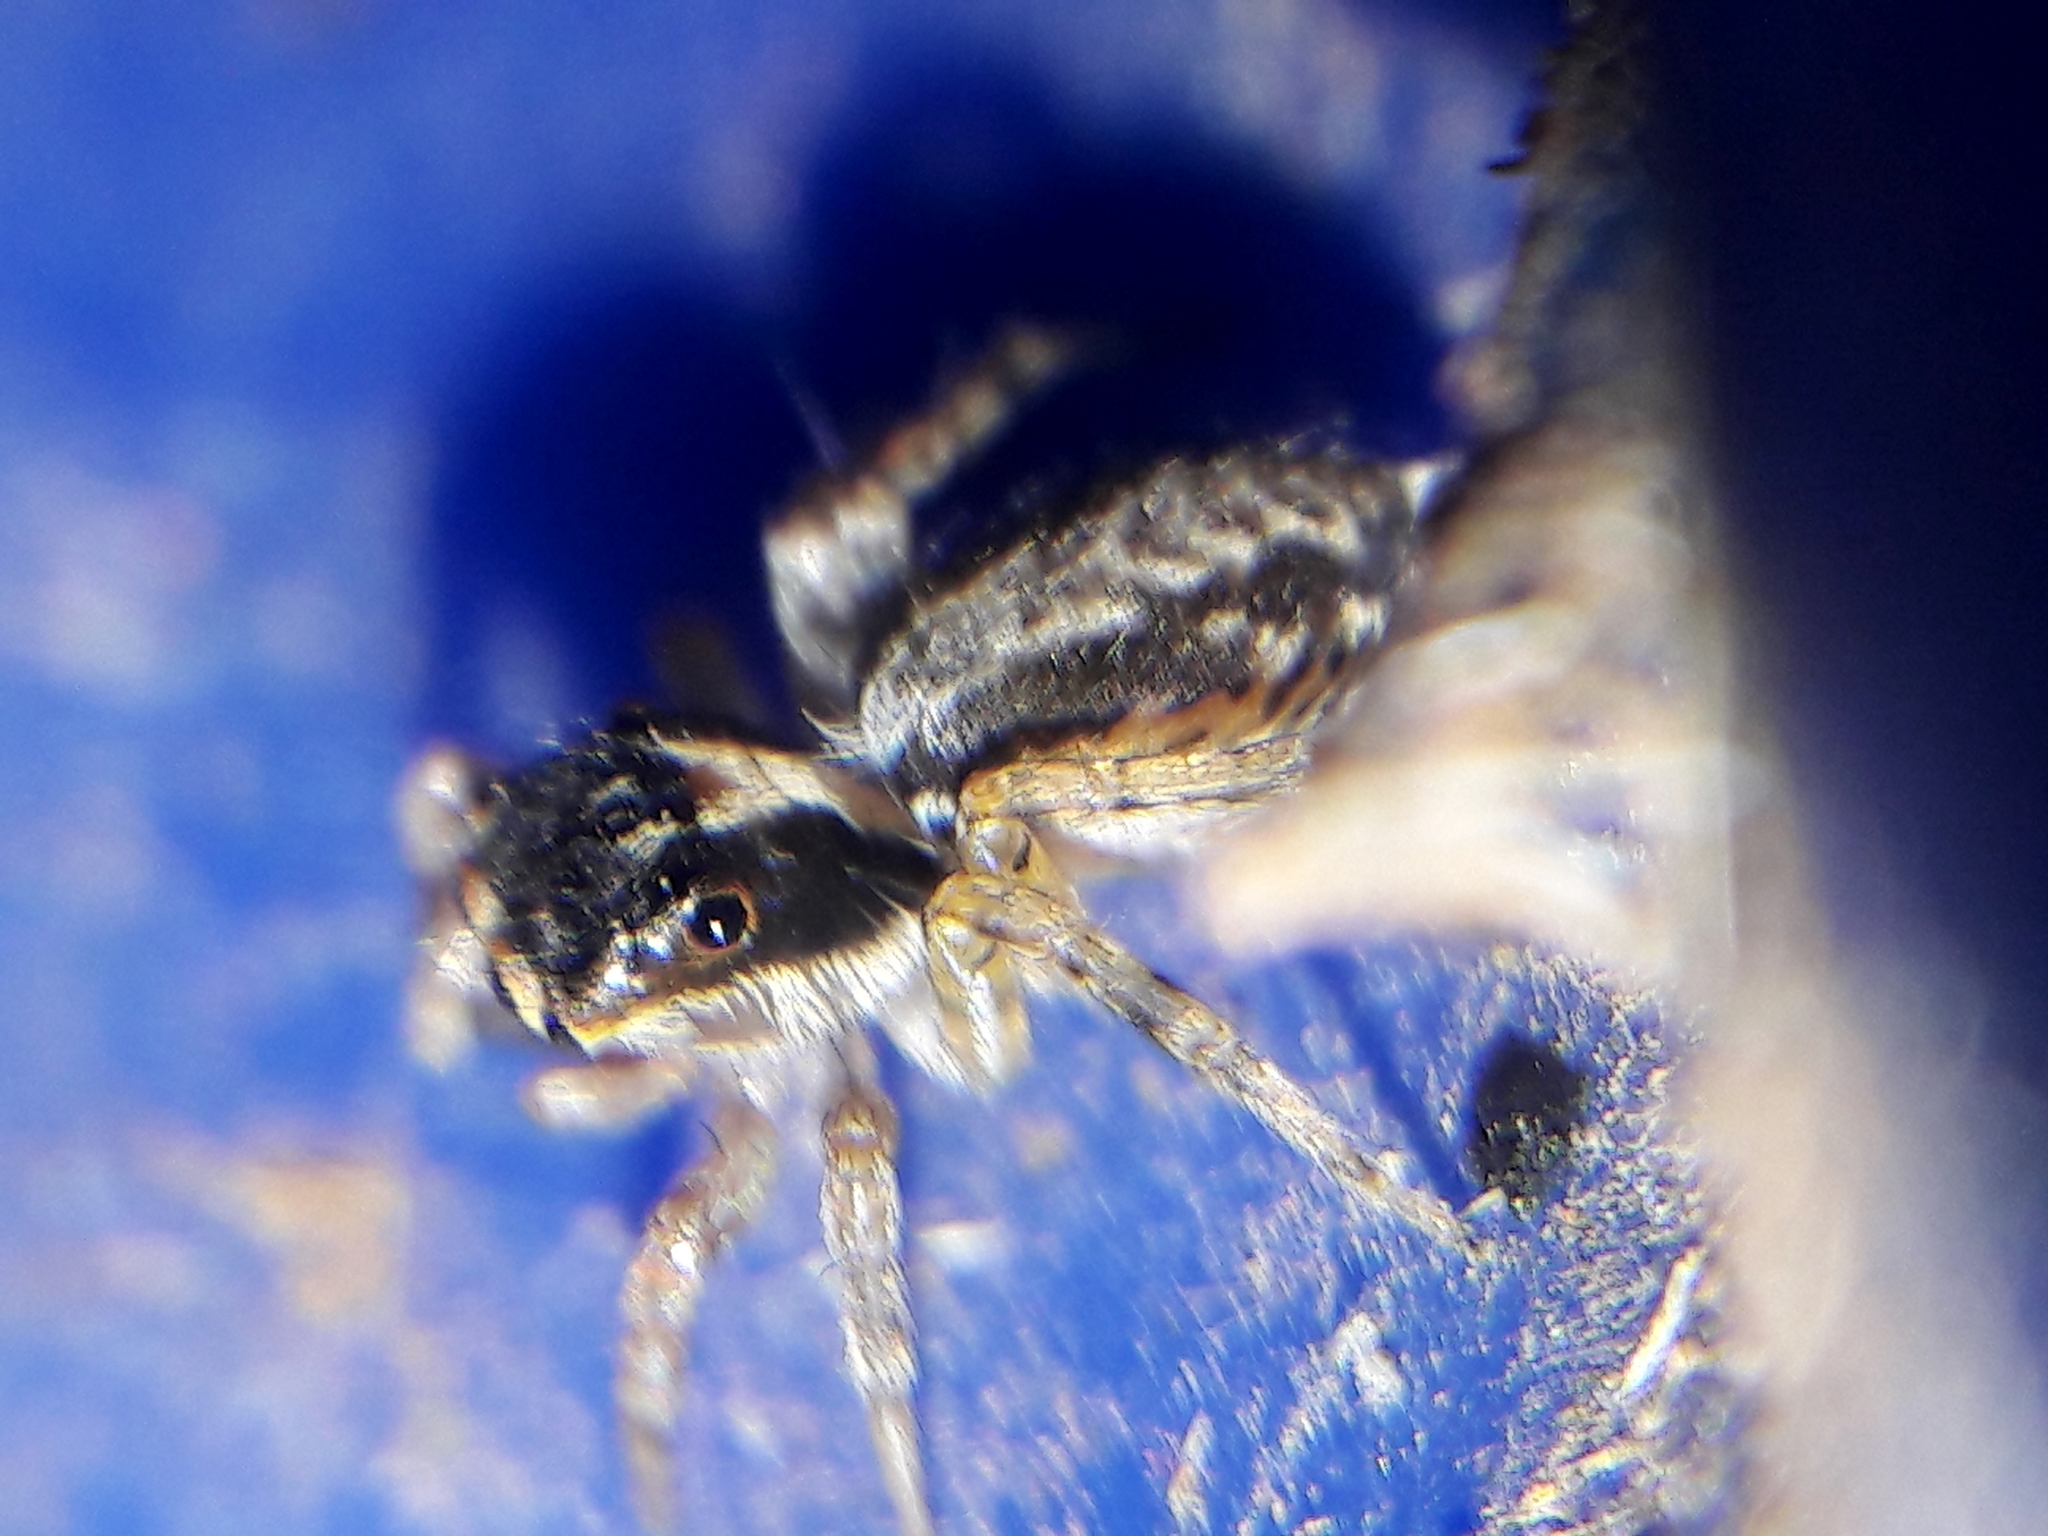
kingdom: Animalia
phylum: Arthropoda
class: Arachnida
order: Araneae
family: Salticidae
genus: Maeota
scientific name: Maeota dichrura
